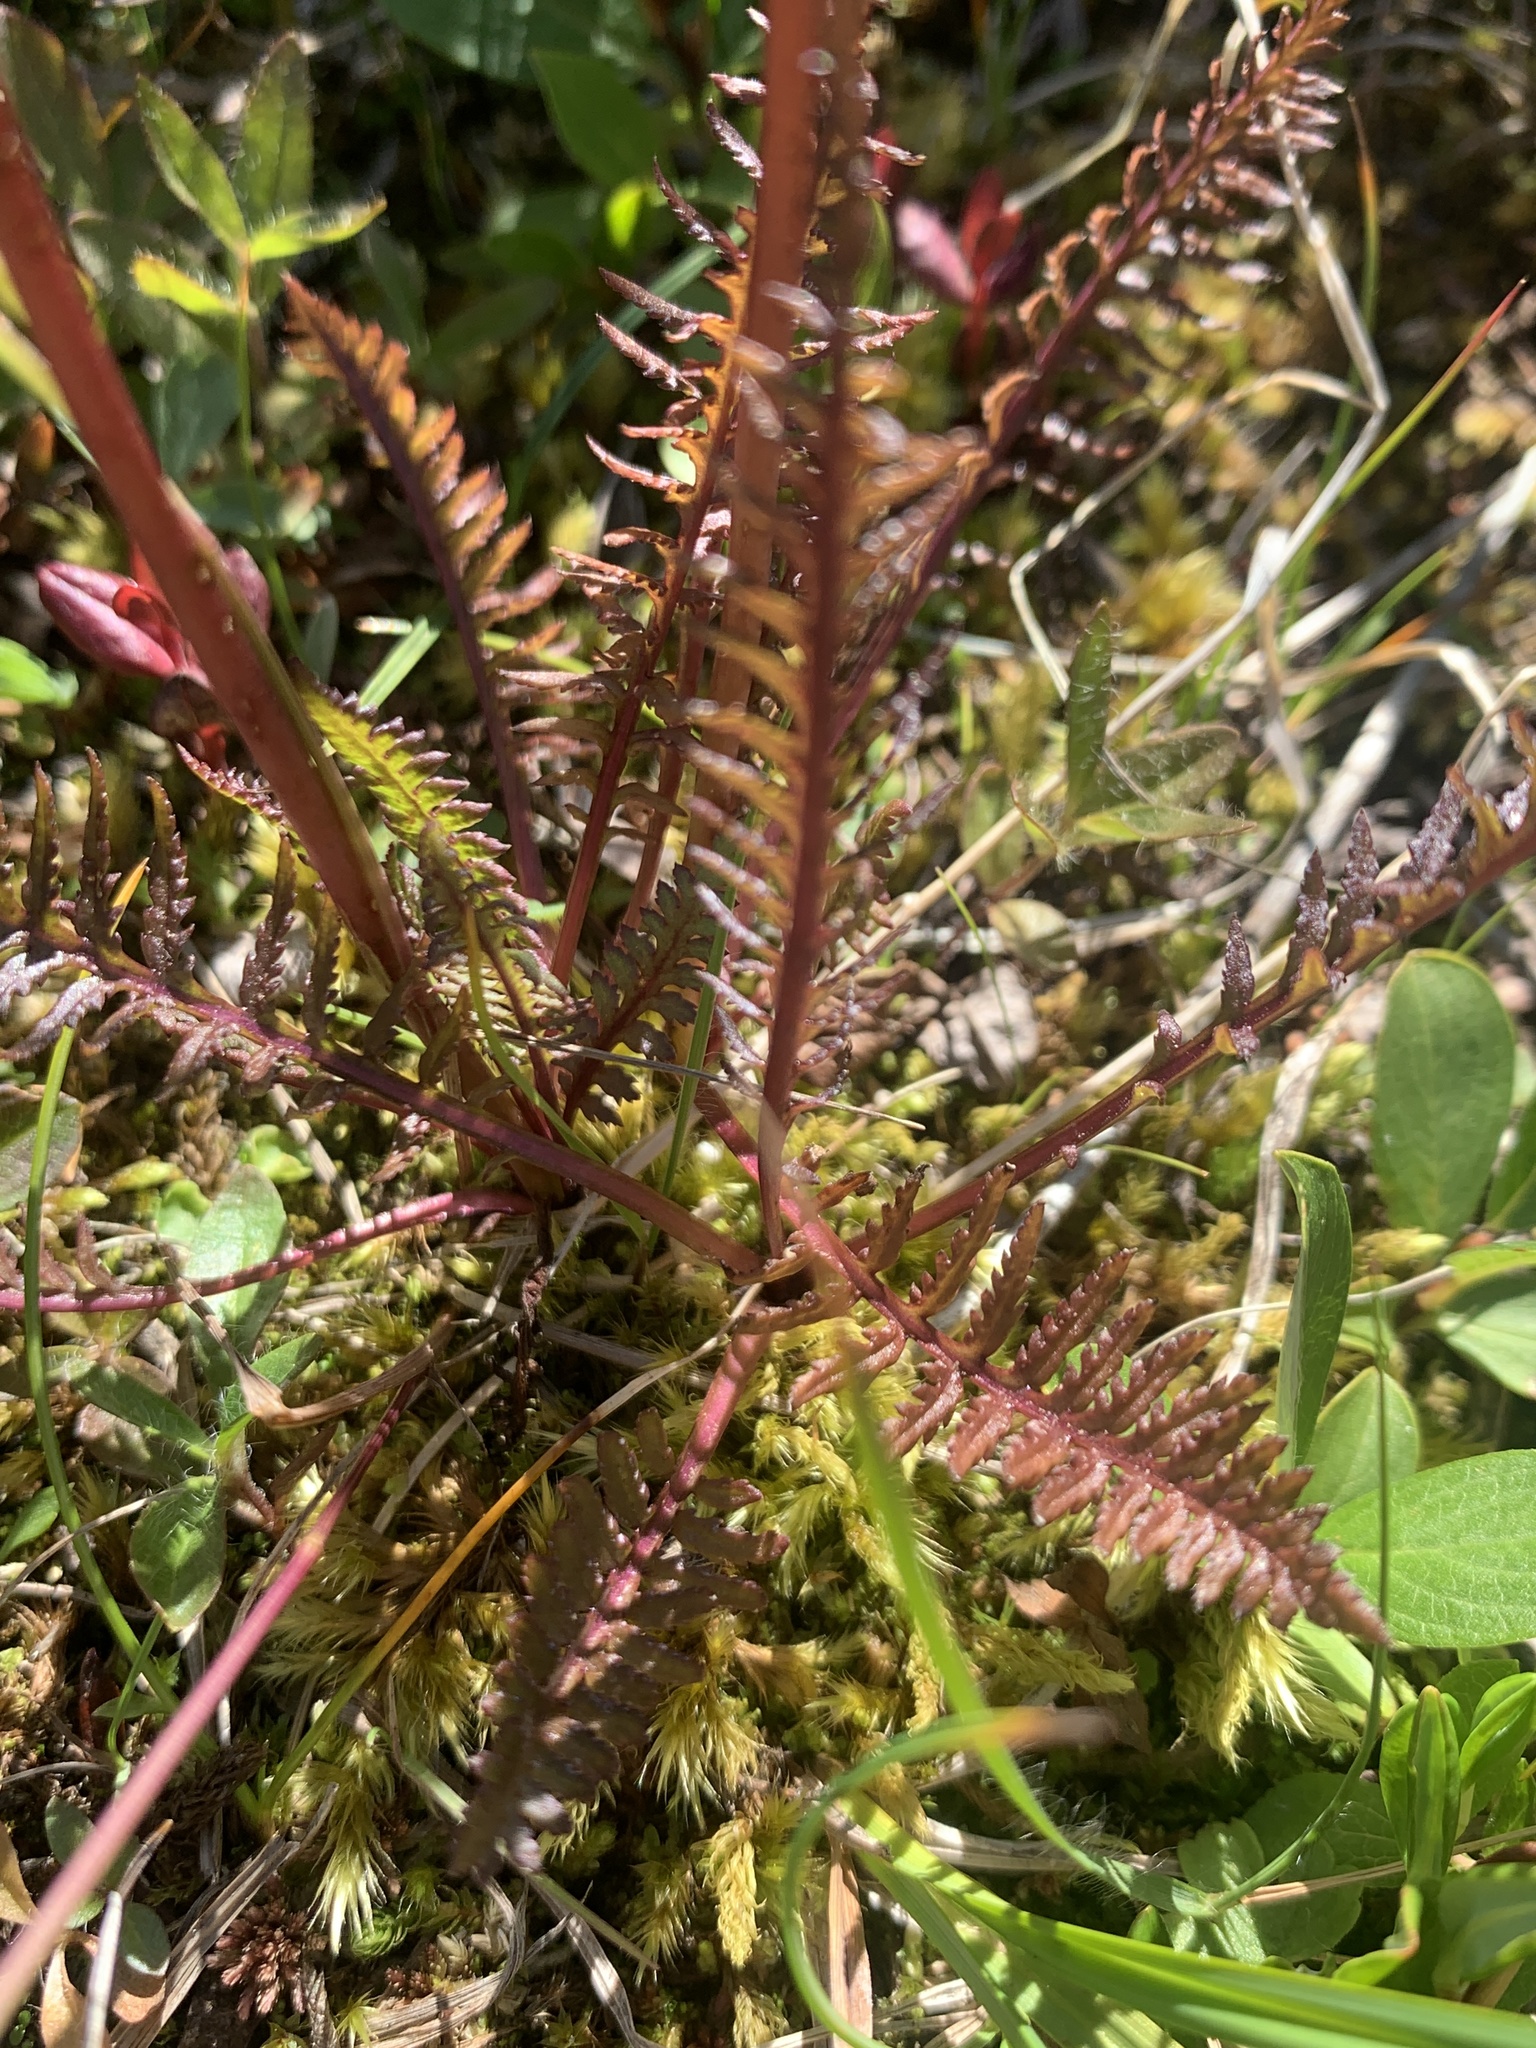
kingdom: Plantae
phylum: Tracheophyta
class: Magnoliopsida
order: Lamiales
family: Orobanchaceae
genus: Pedicularis
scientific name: Pedicularis groenlandica
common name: Elephant's-head
